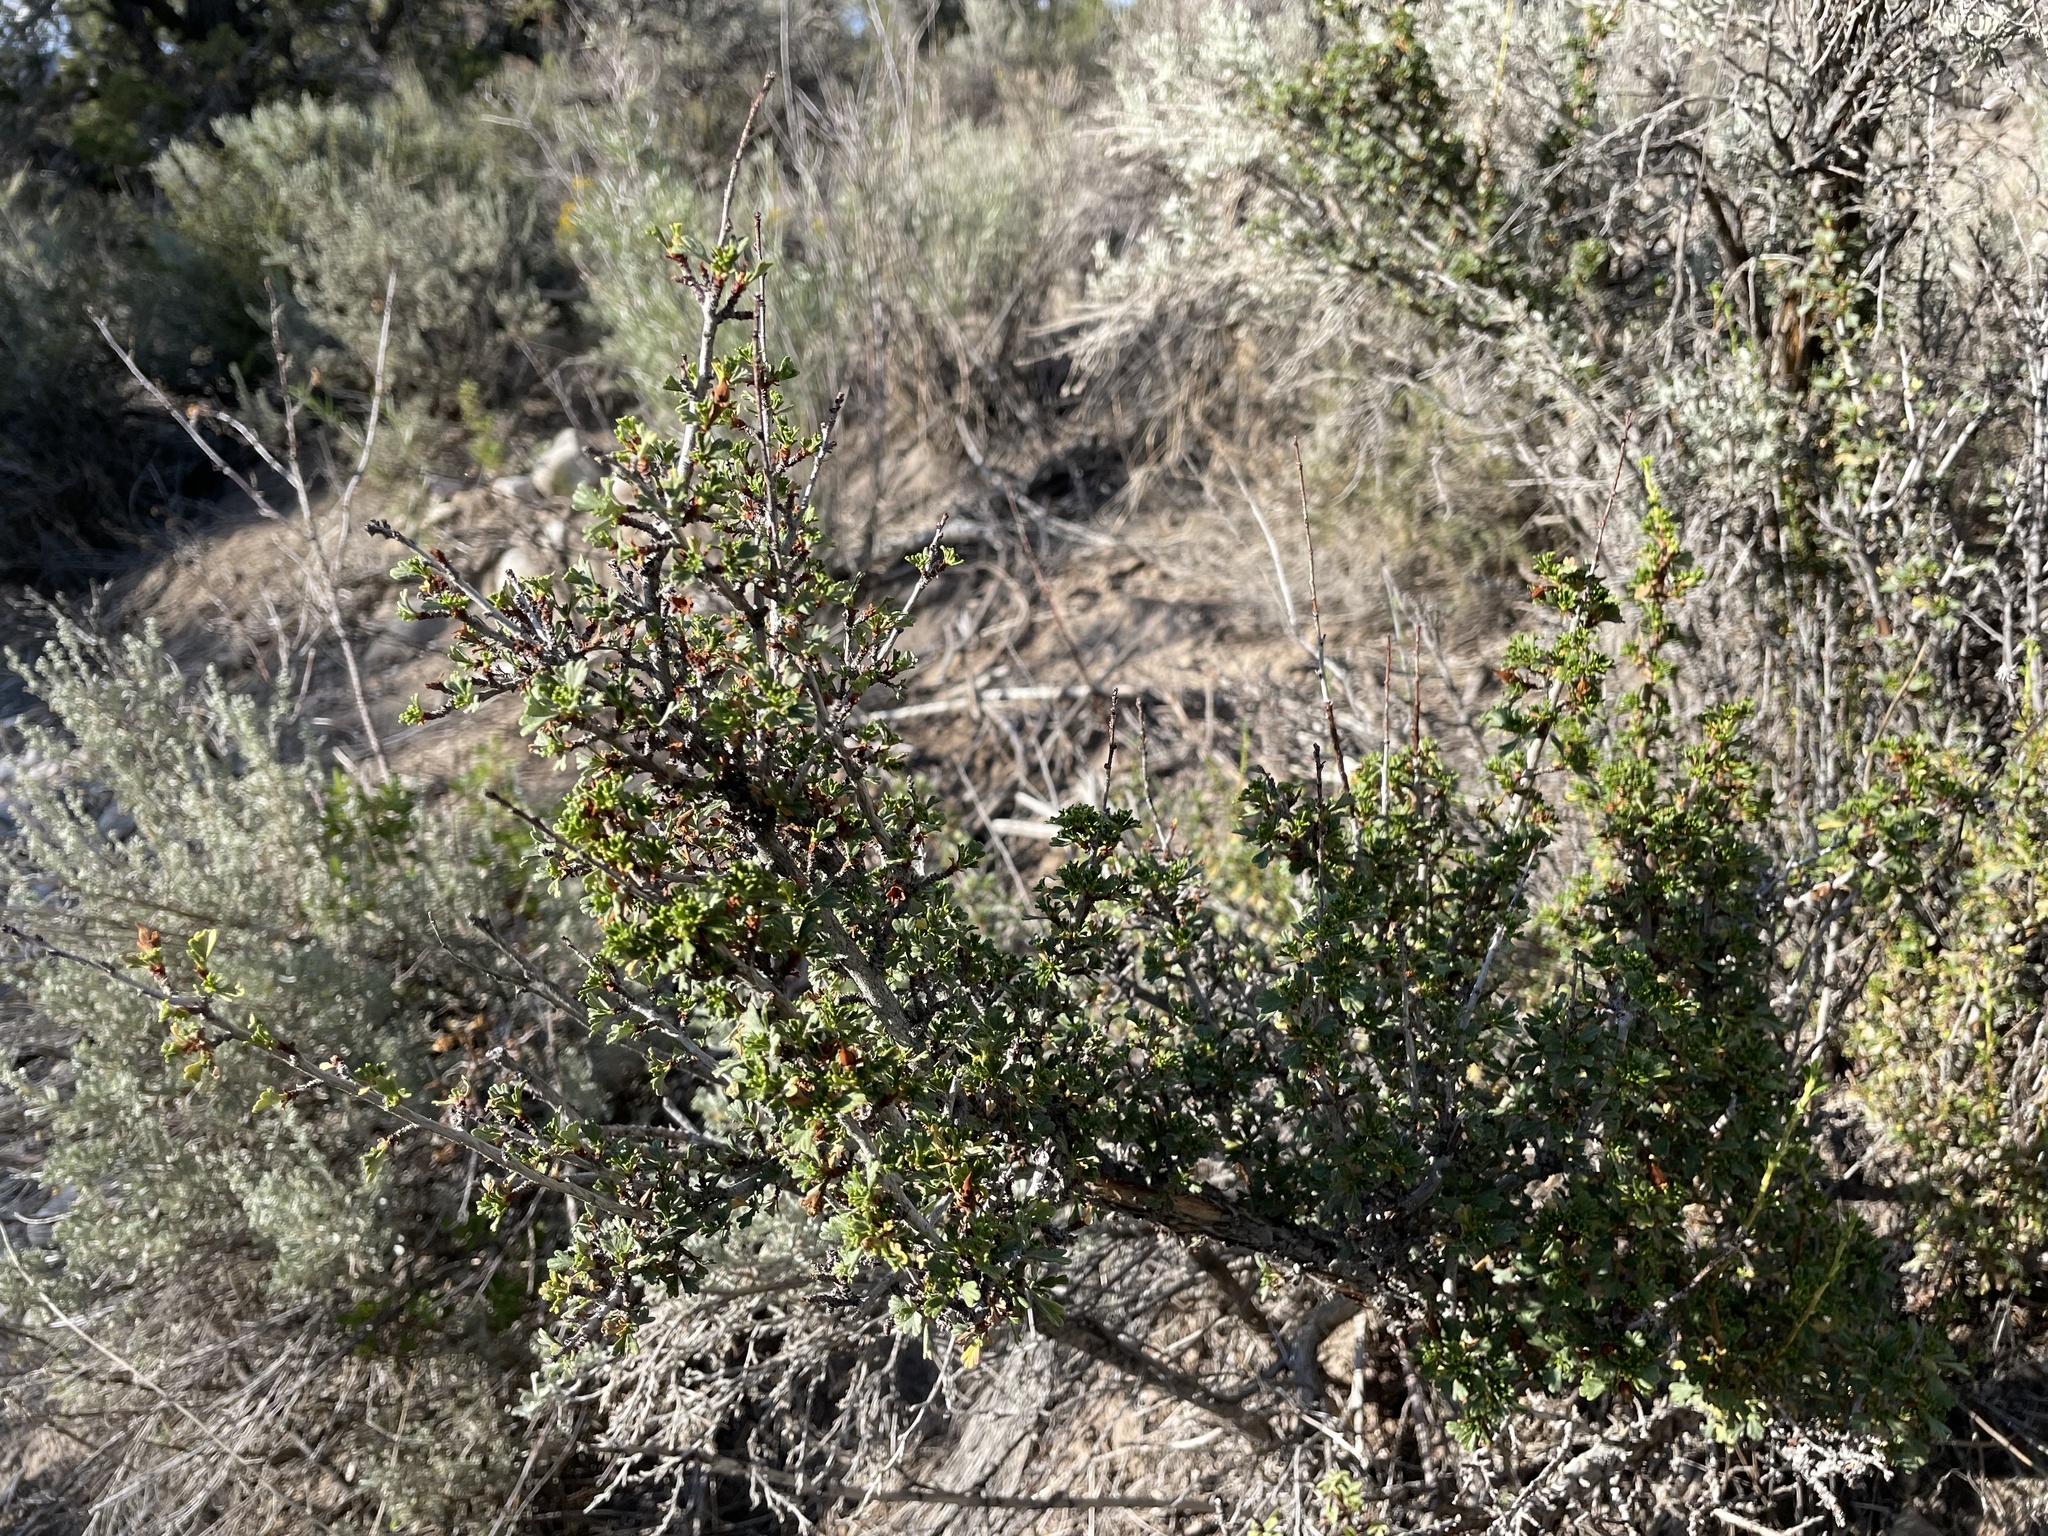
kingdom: Plantae
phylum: Tracheophyta
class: Magnoliopsida
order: Rosales
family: Rosaceae
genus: Purshia
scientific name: Purshia tridentata
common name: Antelope bitterbrush
